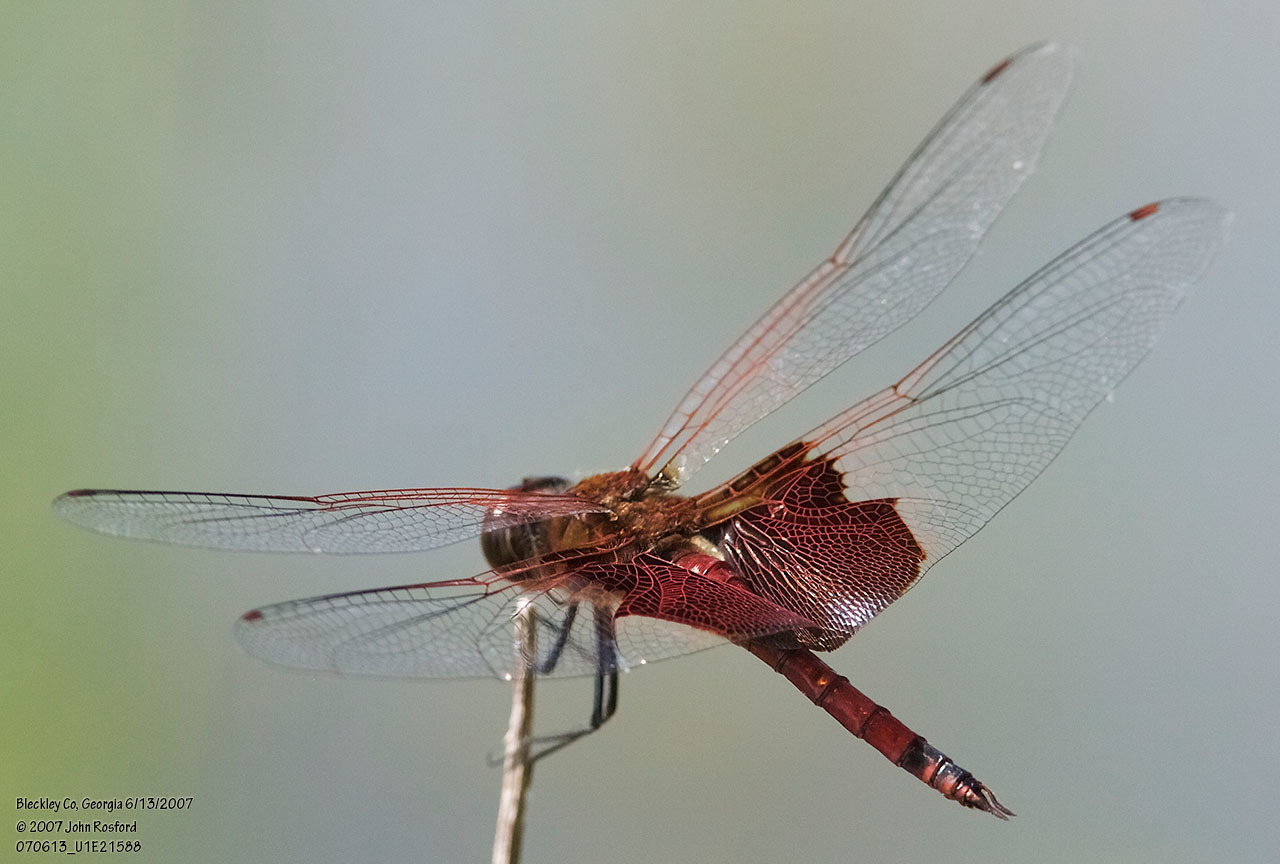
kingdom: Animalia
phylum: Arthropoda
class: Insecta
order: Odonata
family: Libellulidae
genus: Tramea
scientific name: Tramea carolina
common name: Carolina saddlebags
